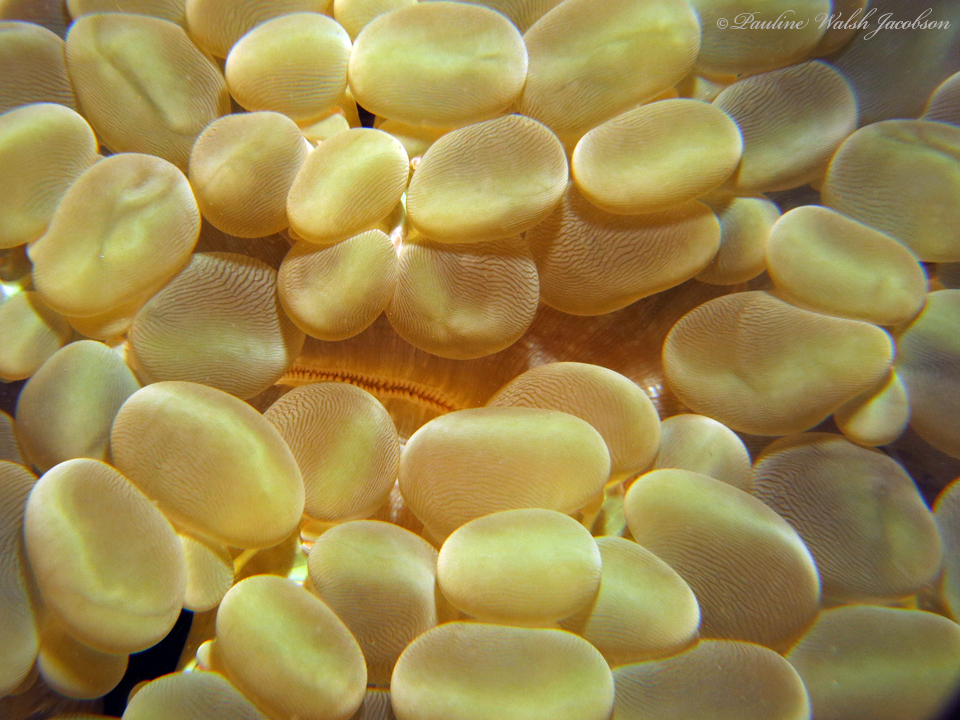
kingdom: Animalia
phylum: Cnidaria
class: Anthozoa
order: Scleractinia
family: Plerogyridae
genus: Plerogyra
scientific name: Plerogyra sinuosa
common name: Bubble coral
